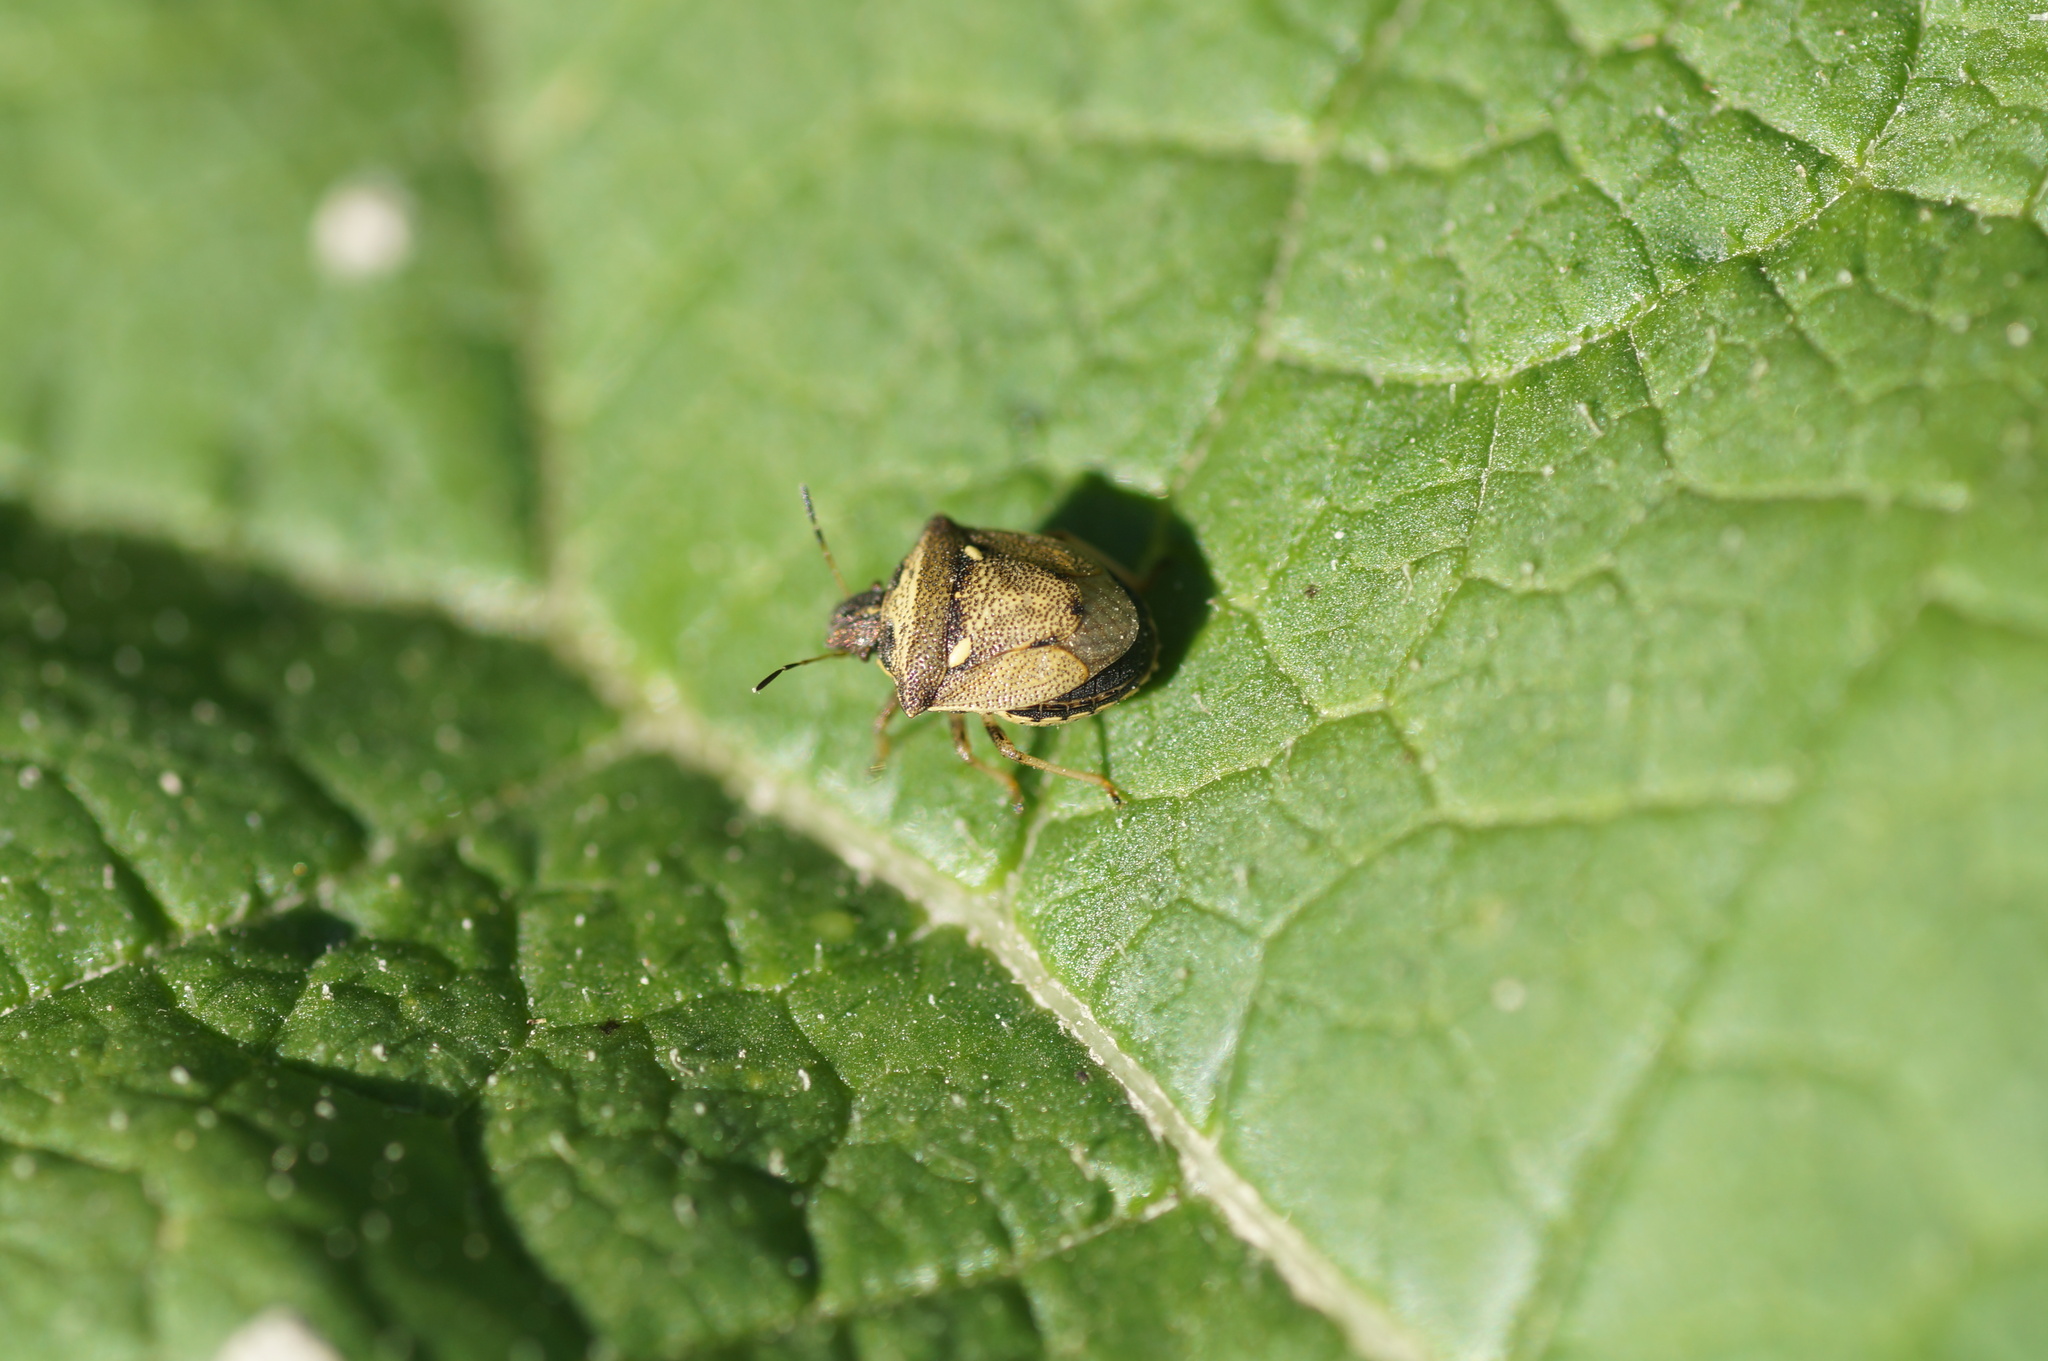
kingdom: Animalia
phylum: Arthropoda
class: Insecta
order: Hemiptera
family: Pentatomidae
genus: Eysarcoris
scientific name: Eysarcoris aeneus
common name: New forest shieldbug
